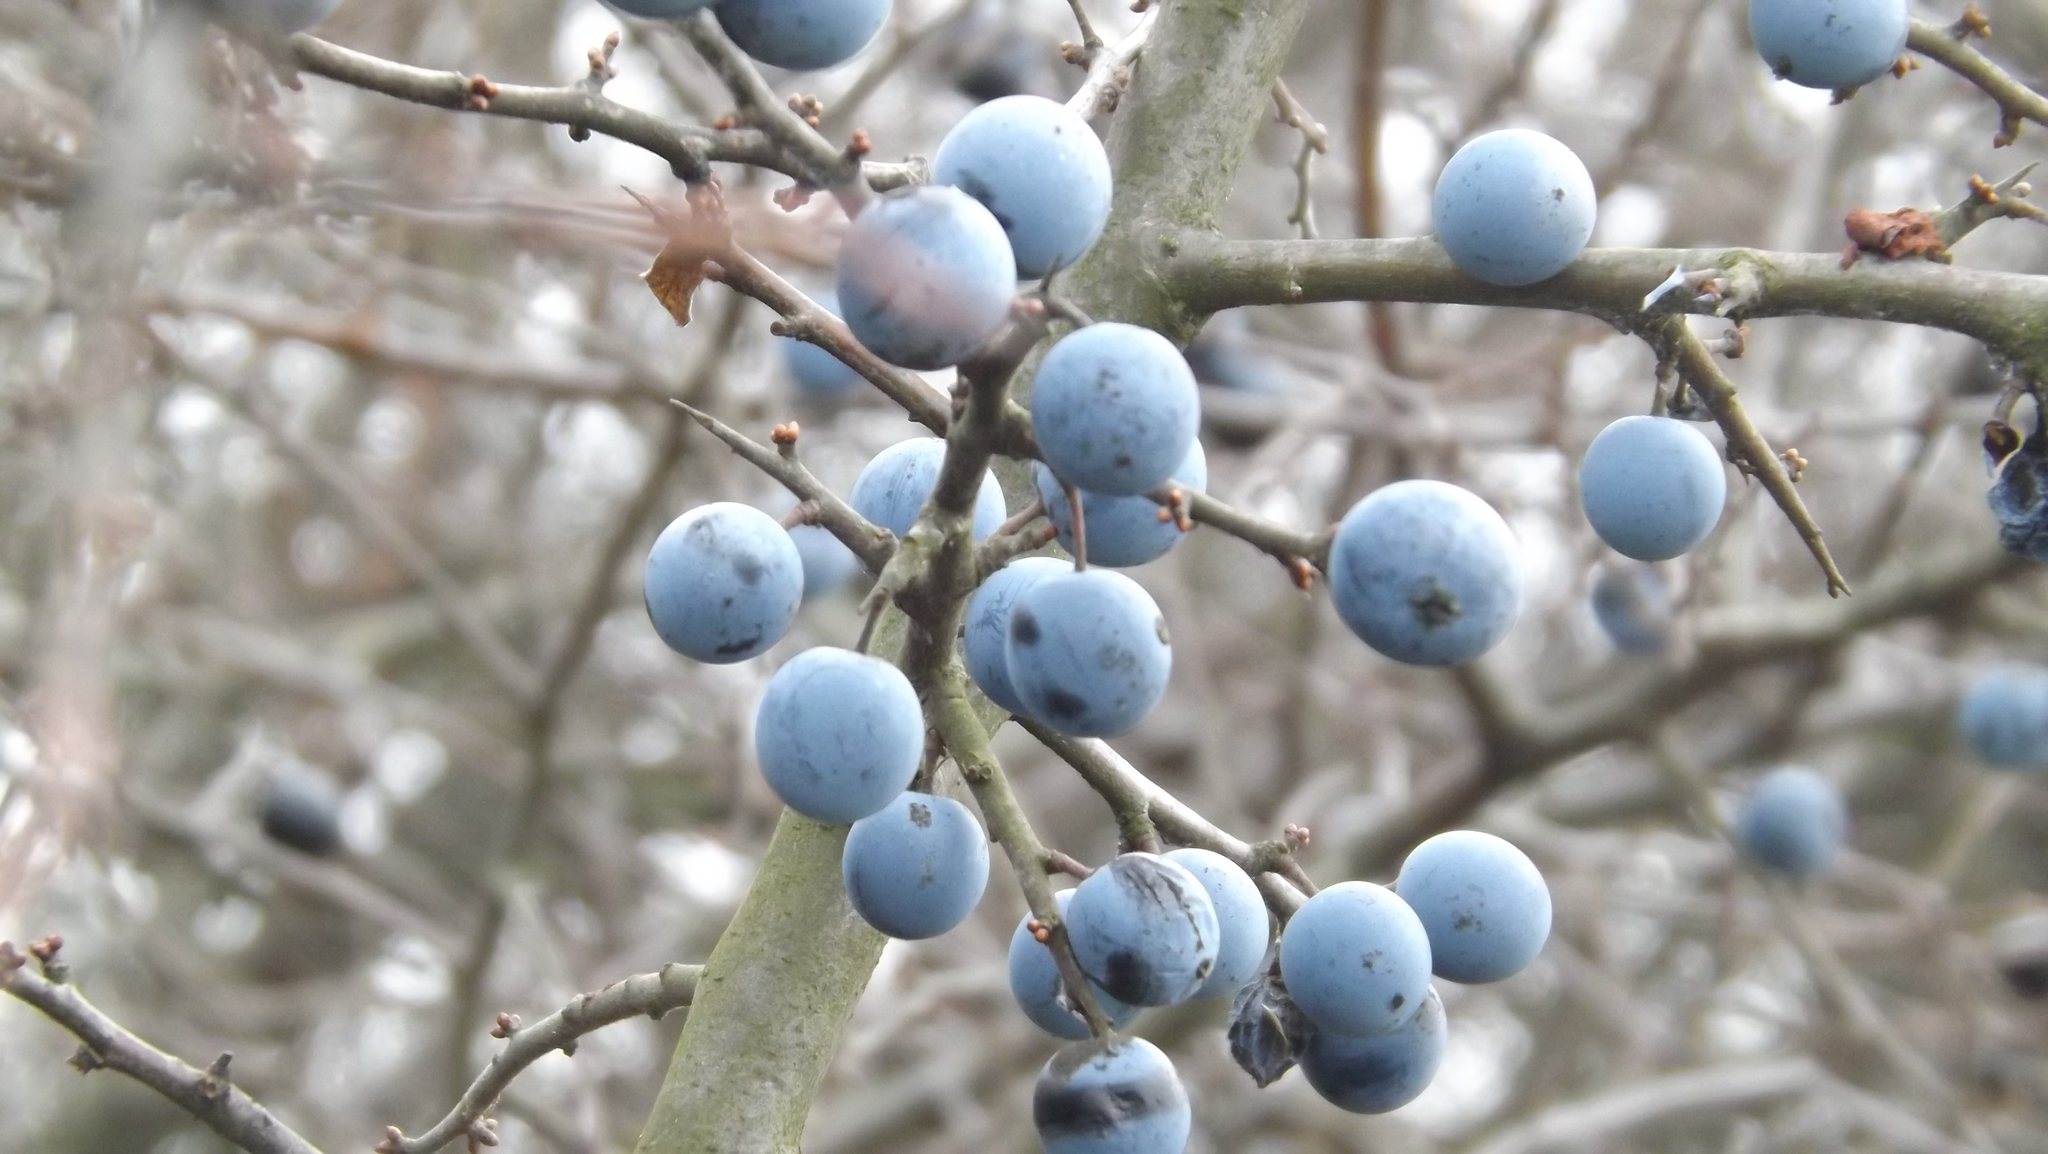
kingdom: Plantae
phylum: Tracheophyta
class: Magnoliopsida
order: Rosales
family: Rosaceae
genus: Prunus
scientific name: Prunus spinosa
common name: Blackthorn
